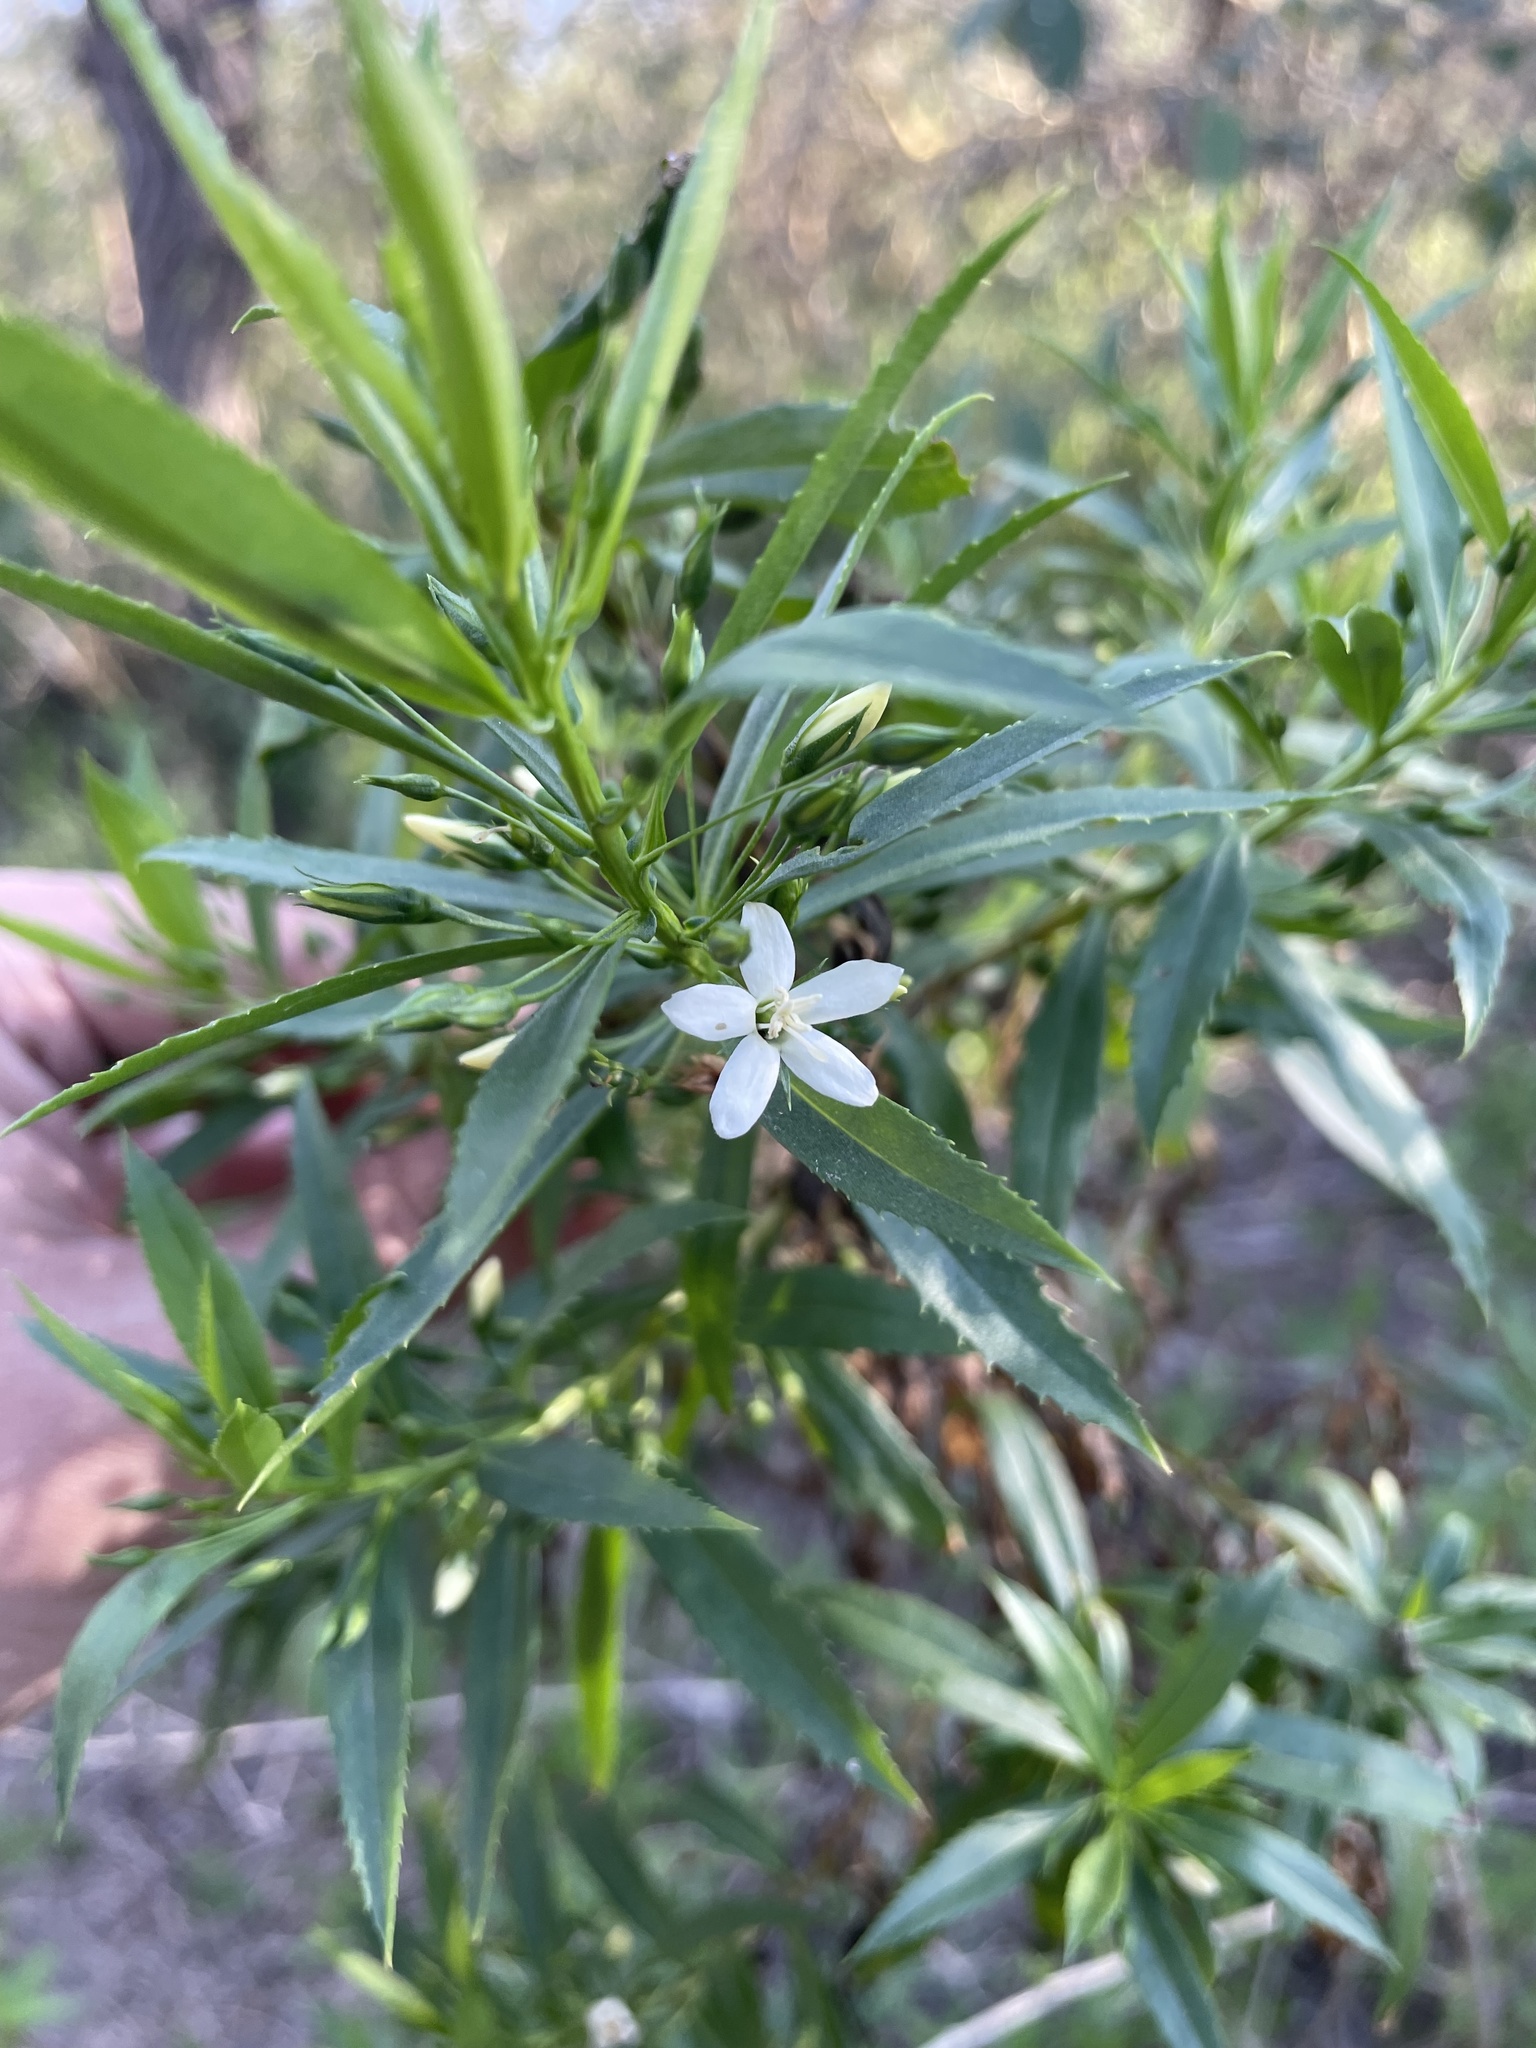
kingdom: Plantae
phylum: Tracheophyta
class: Magnoliopsida
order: Lamiales
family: Scrophulariaceae
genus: Capraria
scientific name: Capraria mexicana
